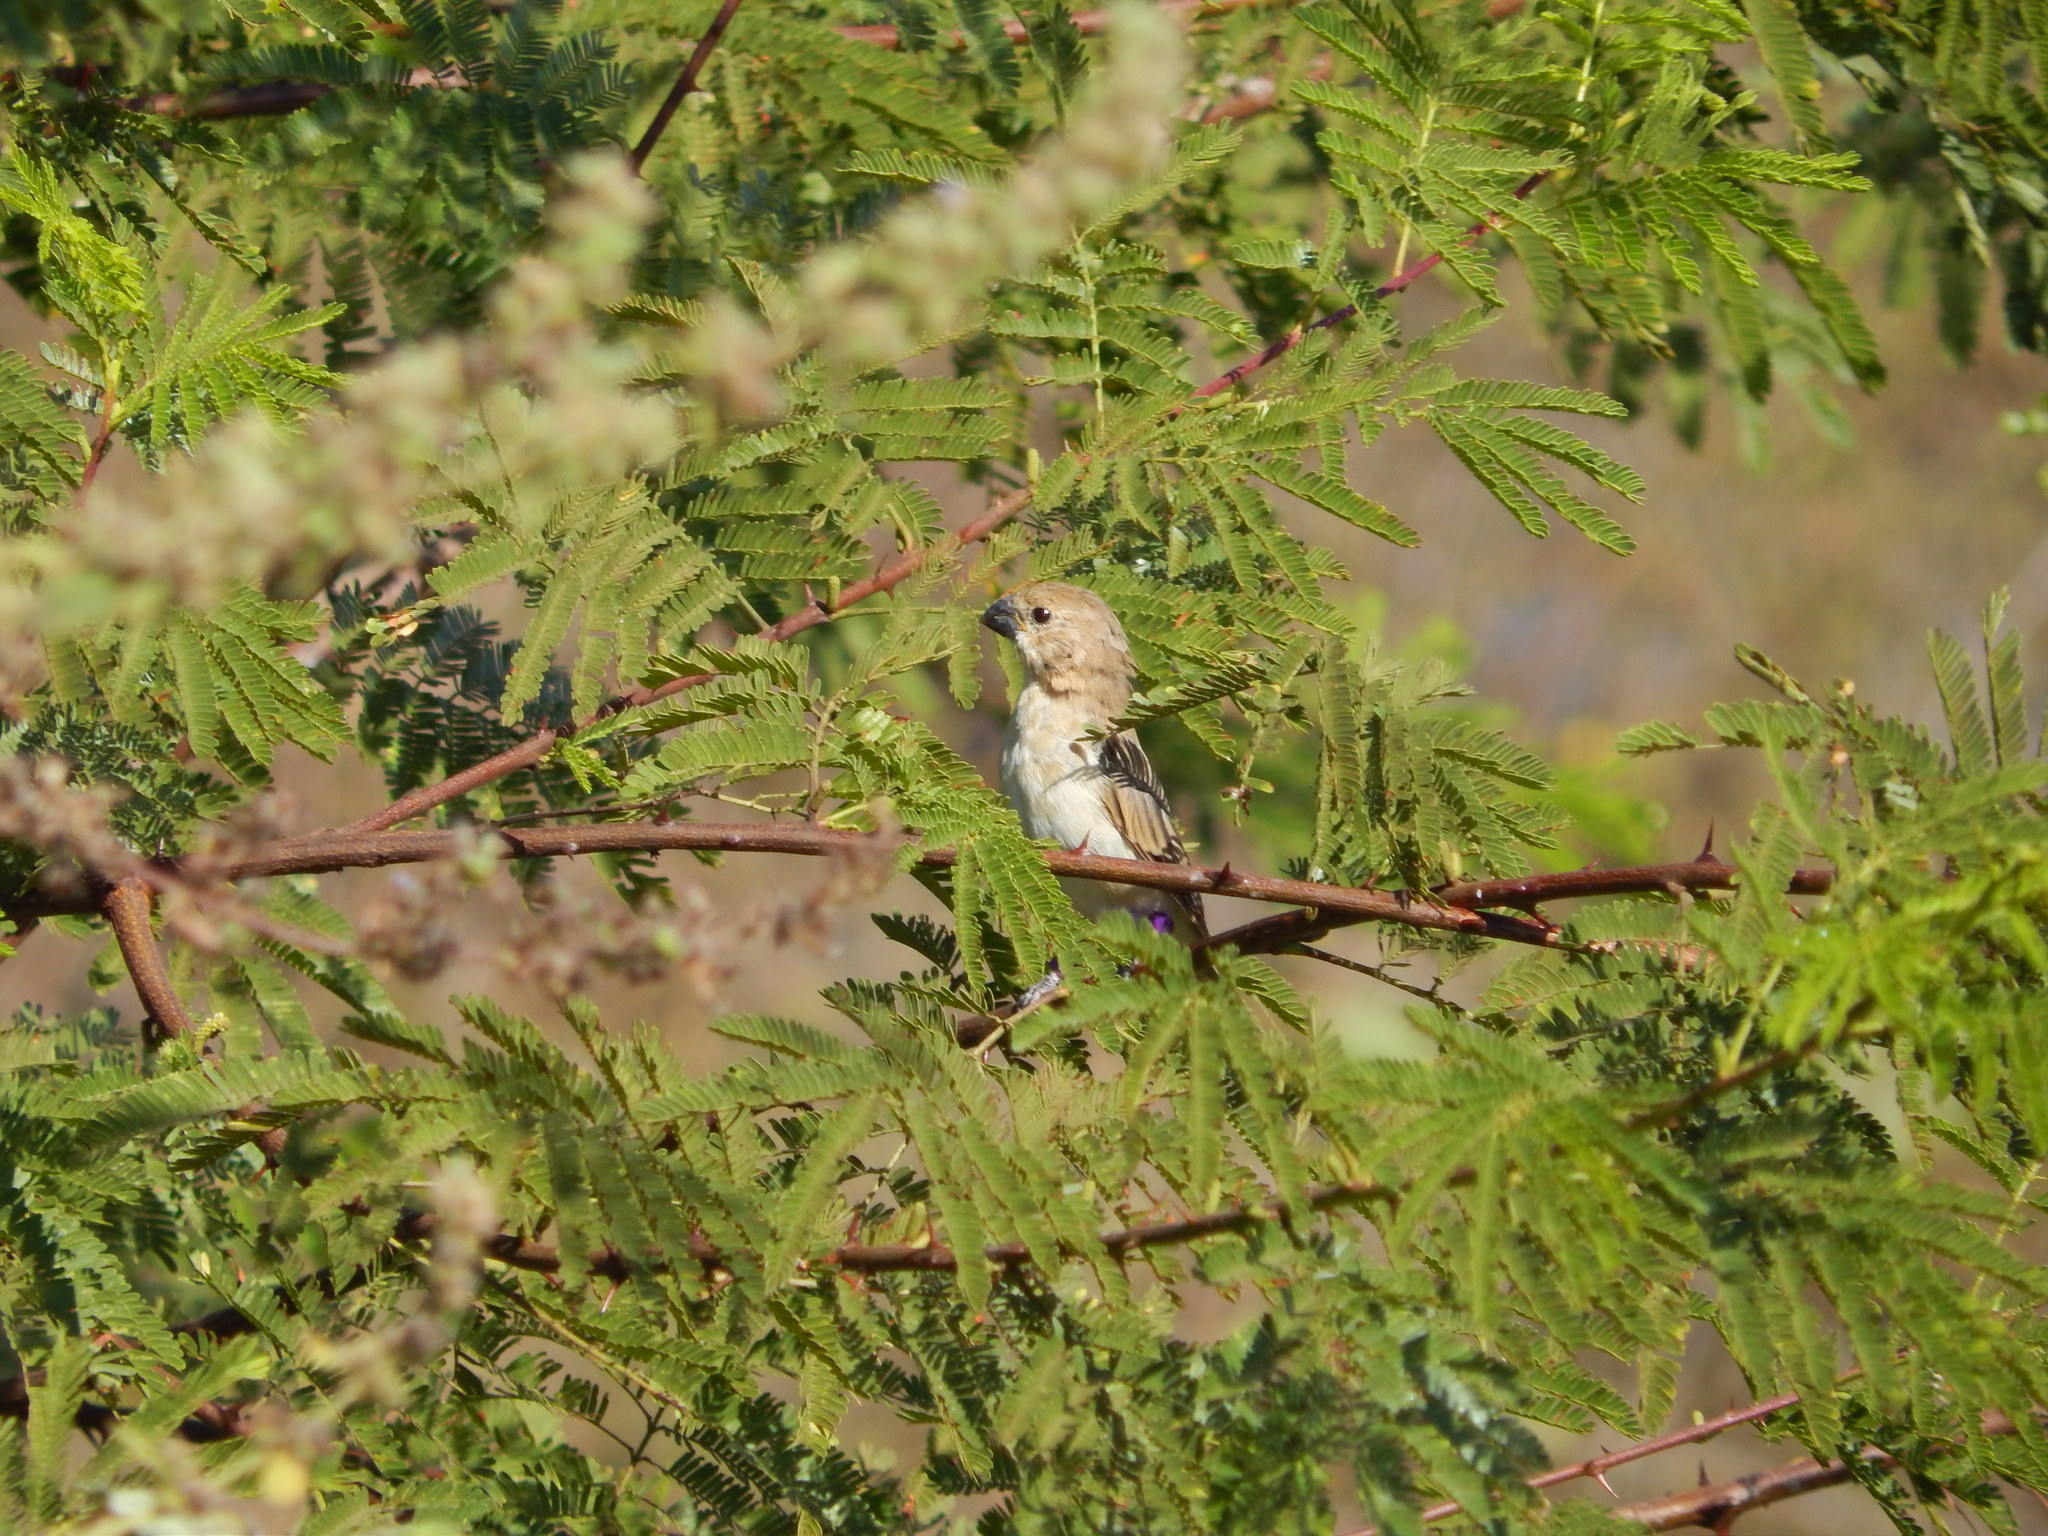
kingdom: Animalia
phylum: Chordata
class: Aves
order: Passeriformes
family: Thraupidae
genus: Sporophila
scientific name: Sporophila albogularis
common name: White-throated seedeater
